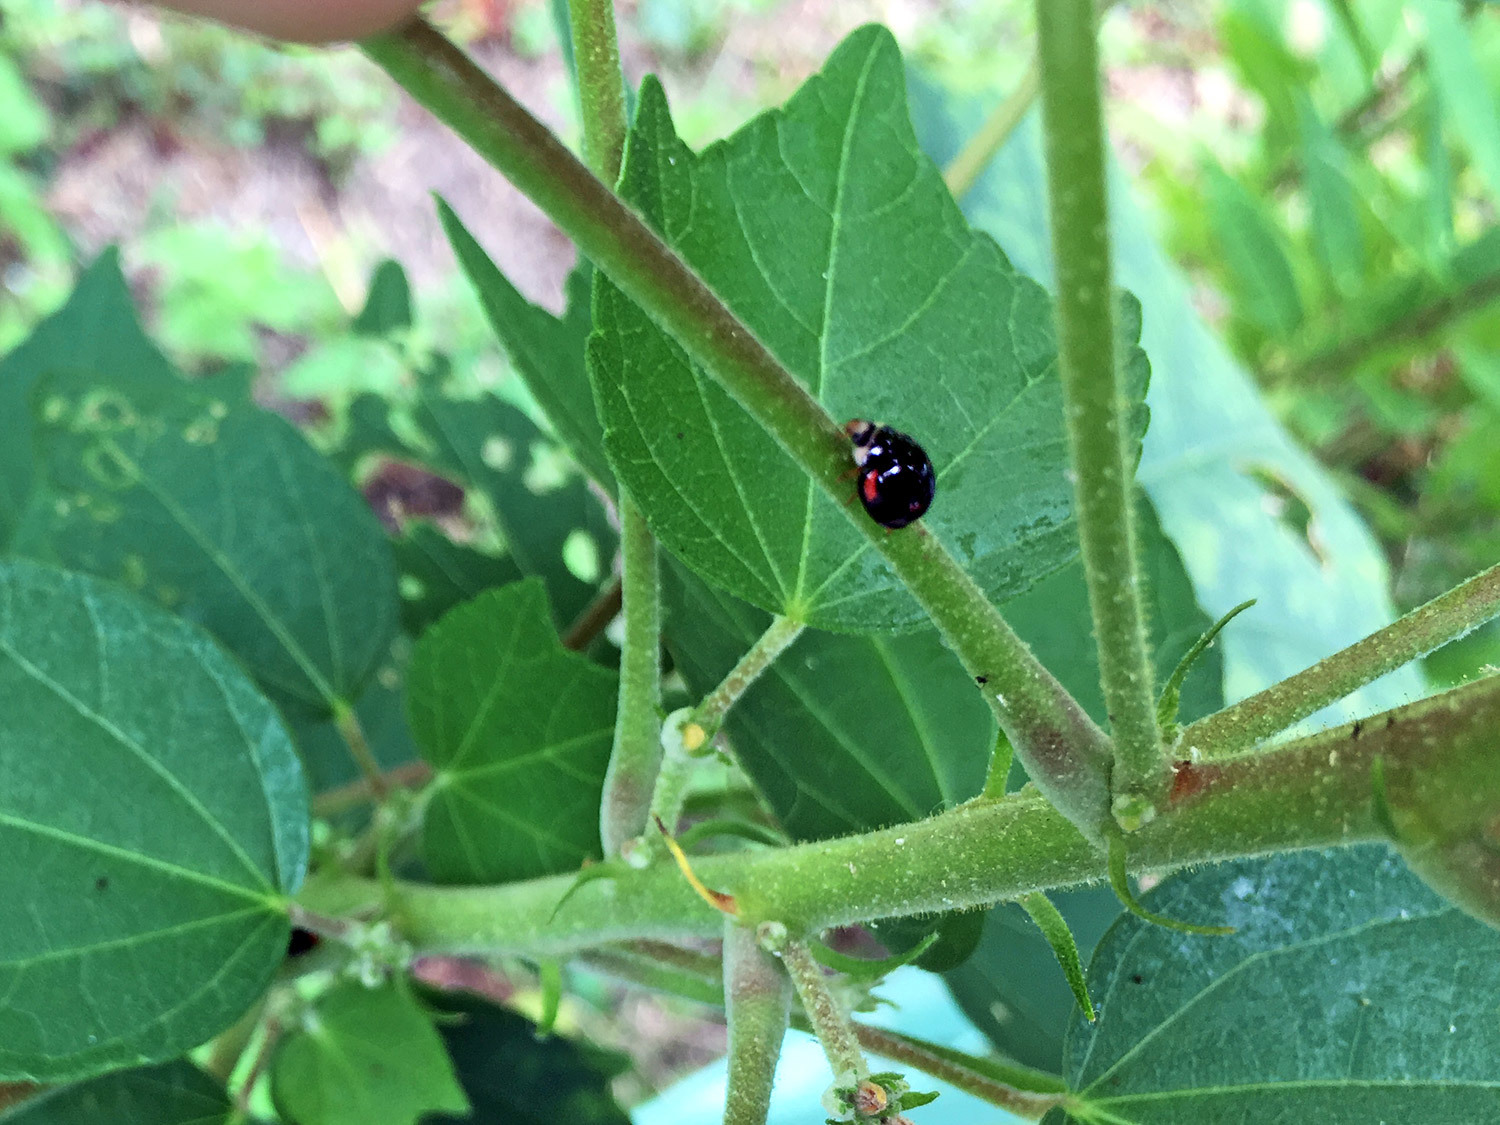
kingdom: Animalia
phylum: Arthropoda
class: Insecta
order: Coleoptera
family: Coccinellidae
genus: Cheilomenes
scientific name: Cheilomenes sexmaculata
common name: Ladybird beetle
